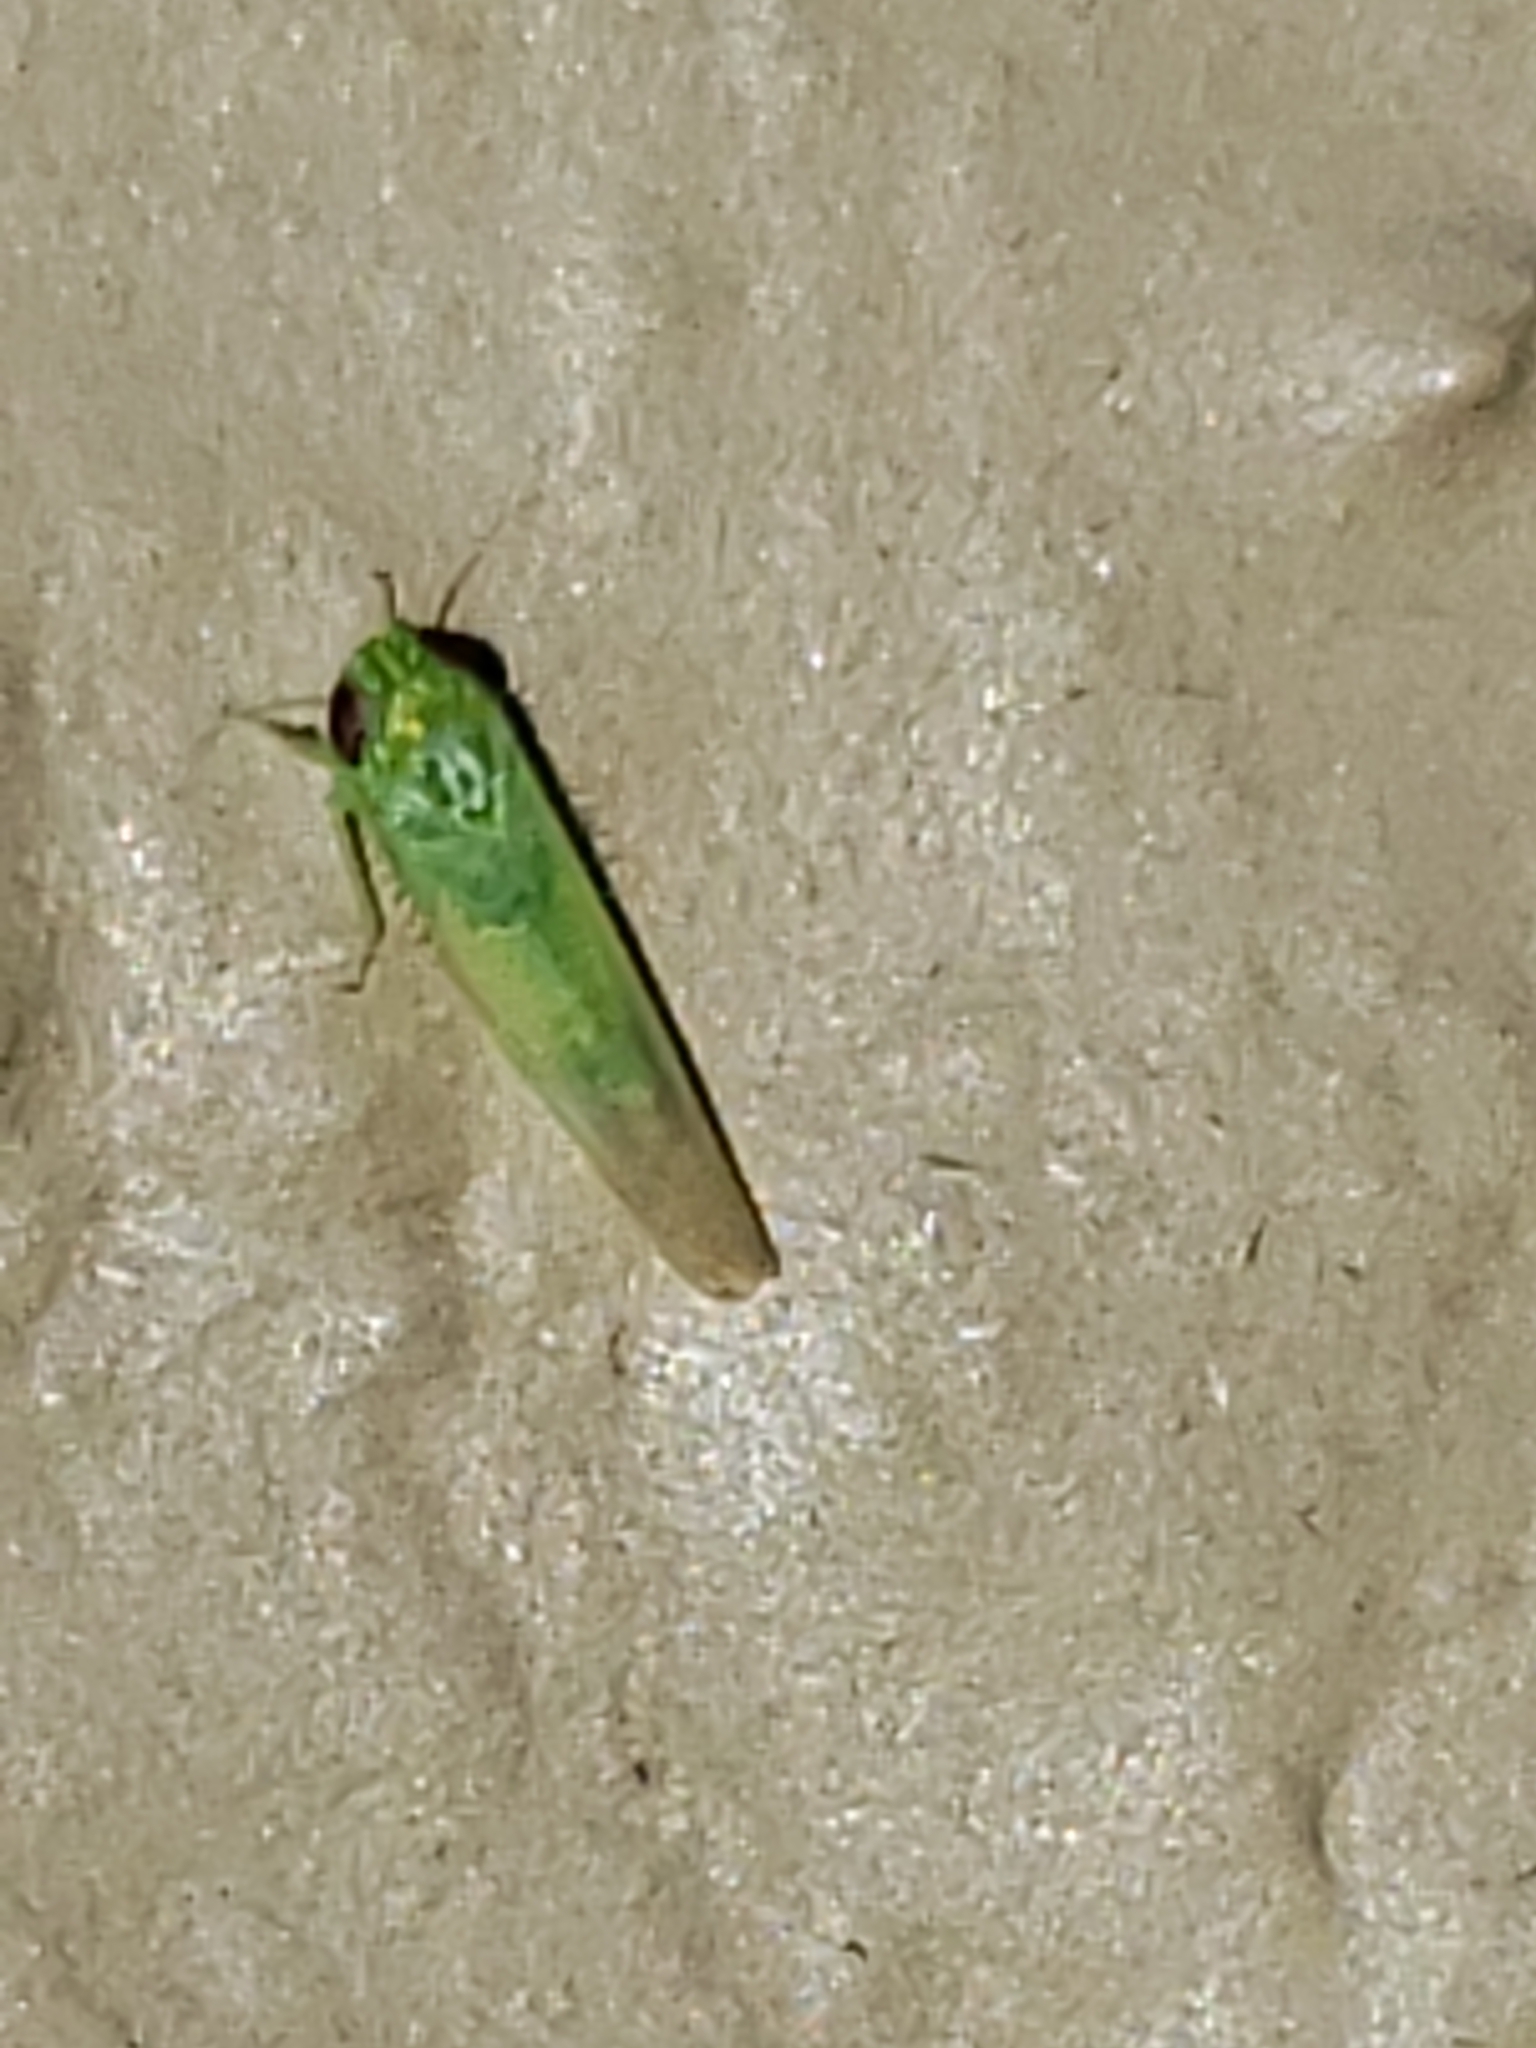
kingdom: Animalia
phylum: Arthropoda
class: Insecta
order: Hemiptera
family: Cicadellidae
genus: Empoasca
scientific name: Empoasca fabae
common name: Potato leafhopper
